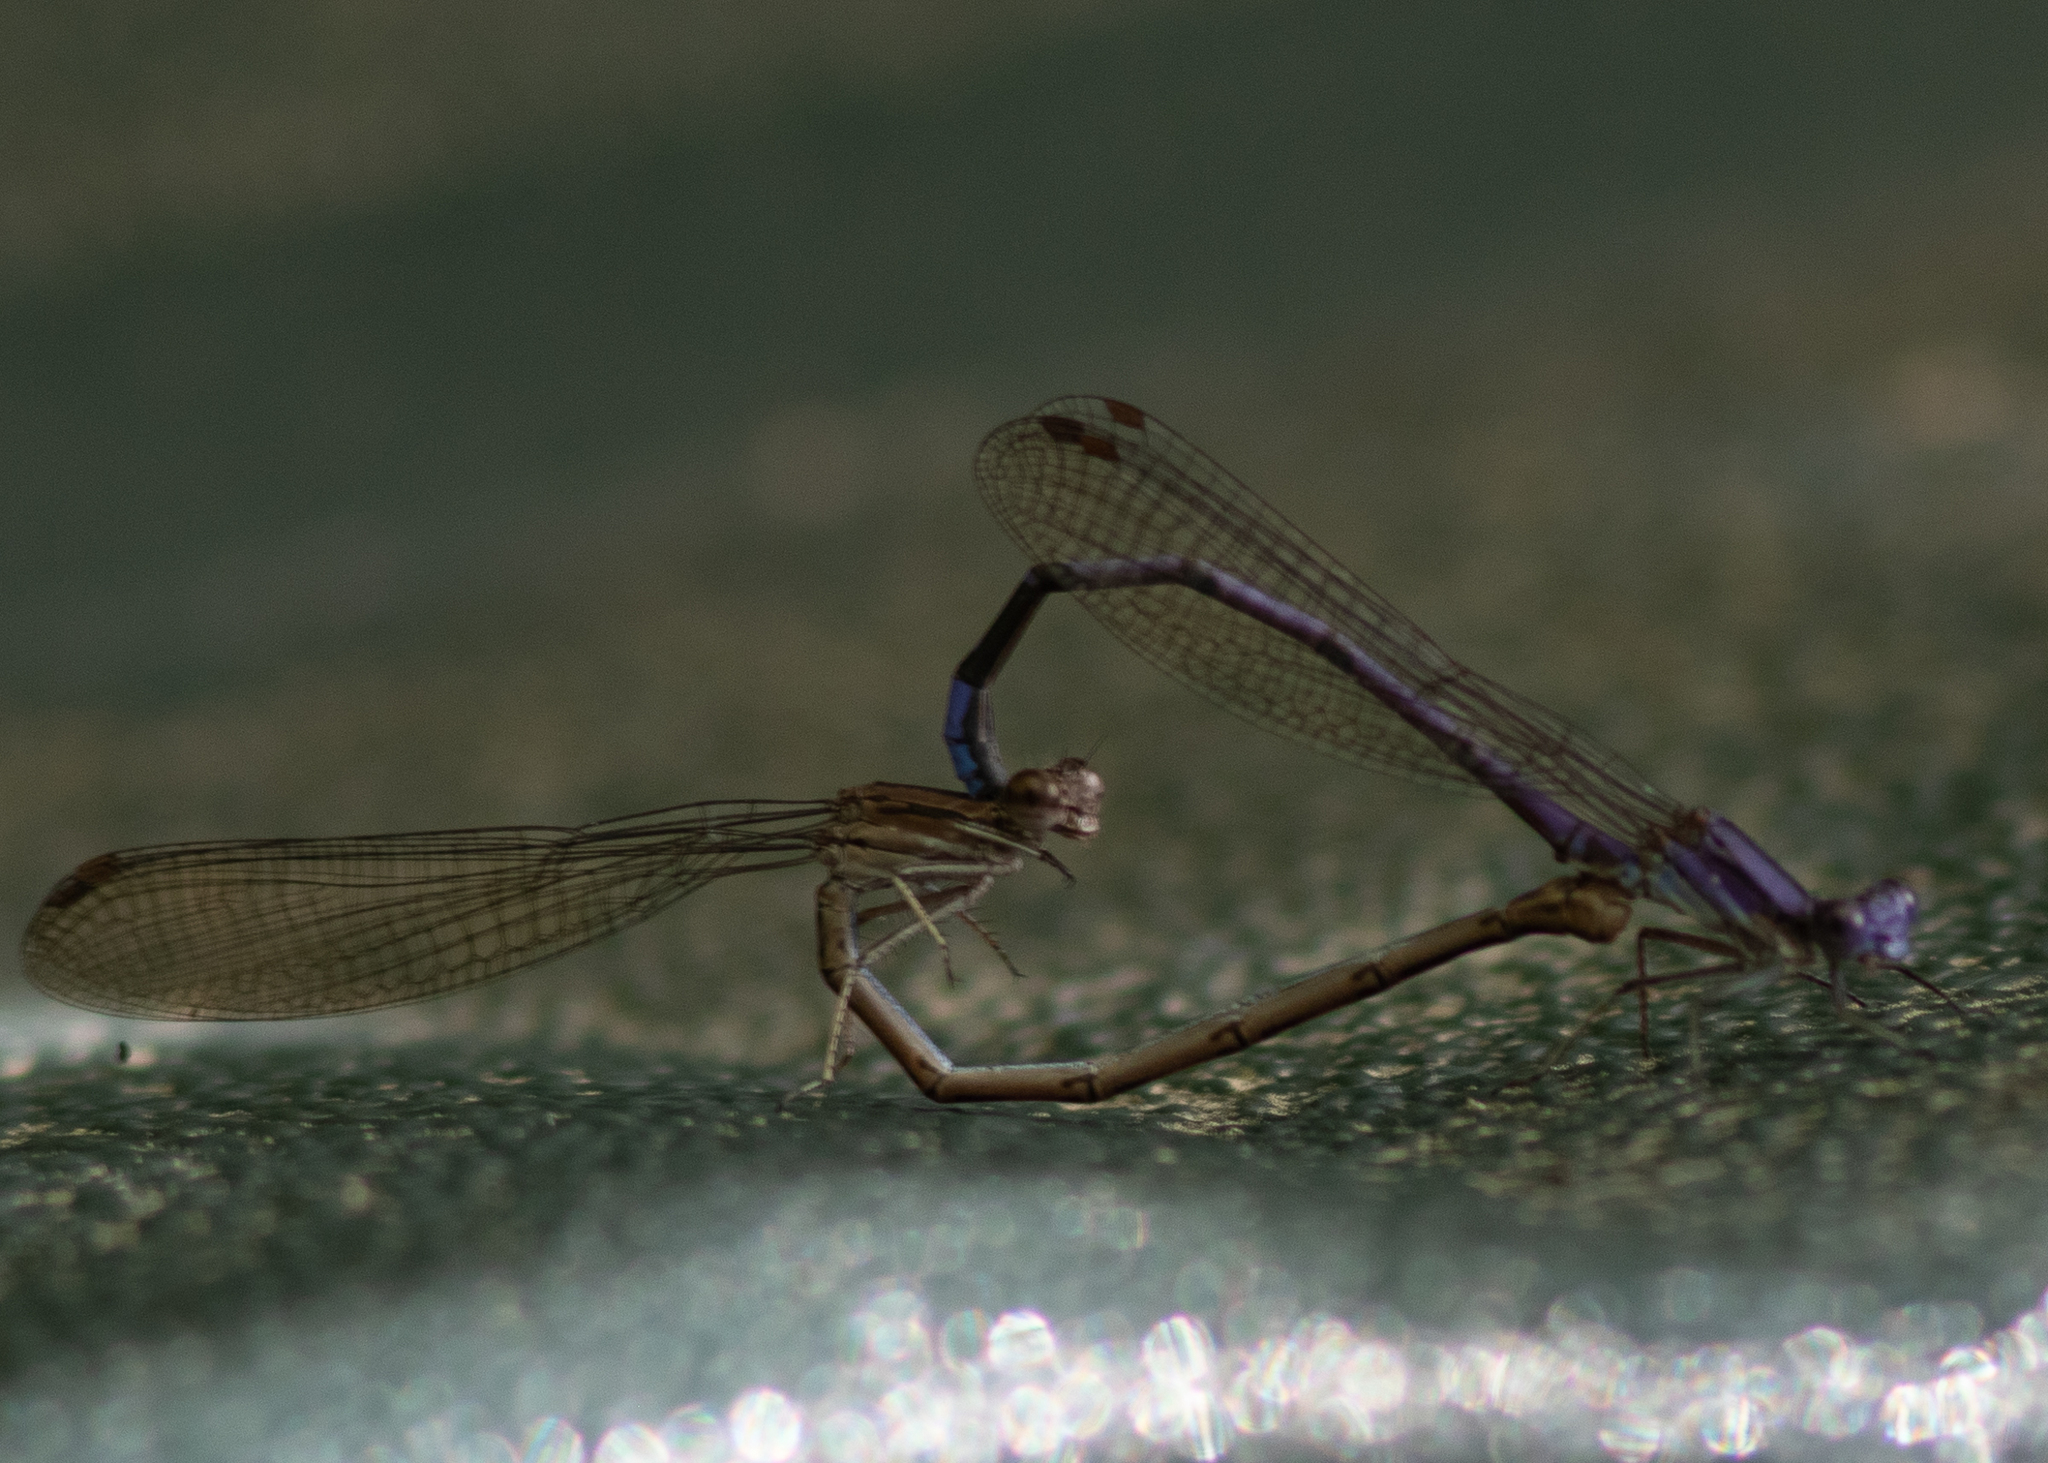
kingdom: Animalia
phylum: Arthropoda
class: Insecta
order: Odonata
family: Coenagrionidae
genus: Argia
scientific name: Argia fumipennis
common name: Variable dancer
